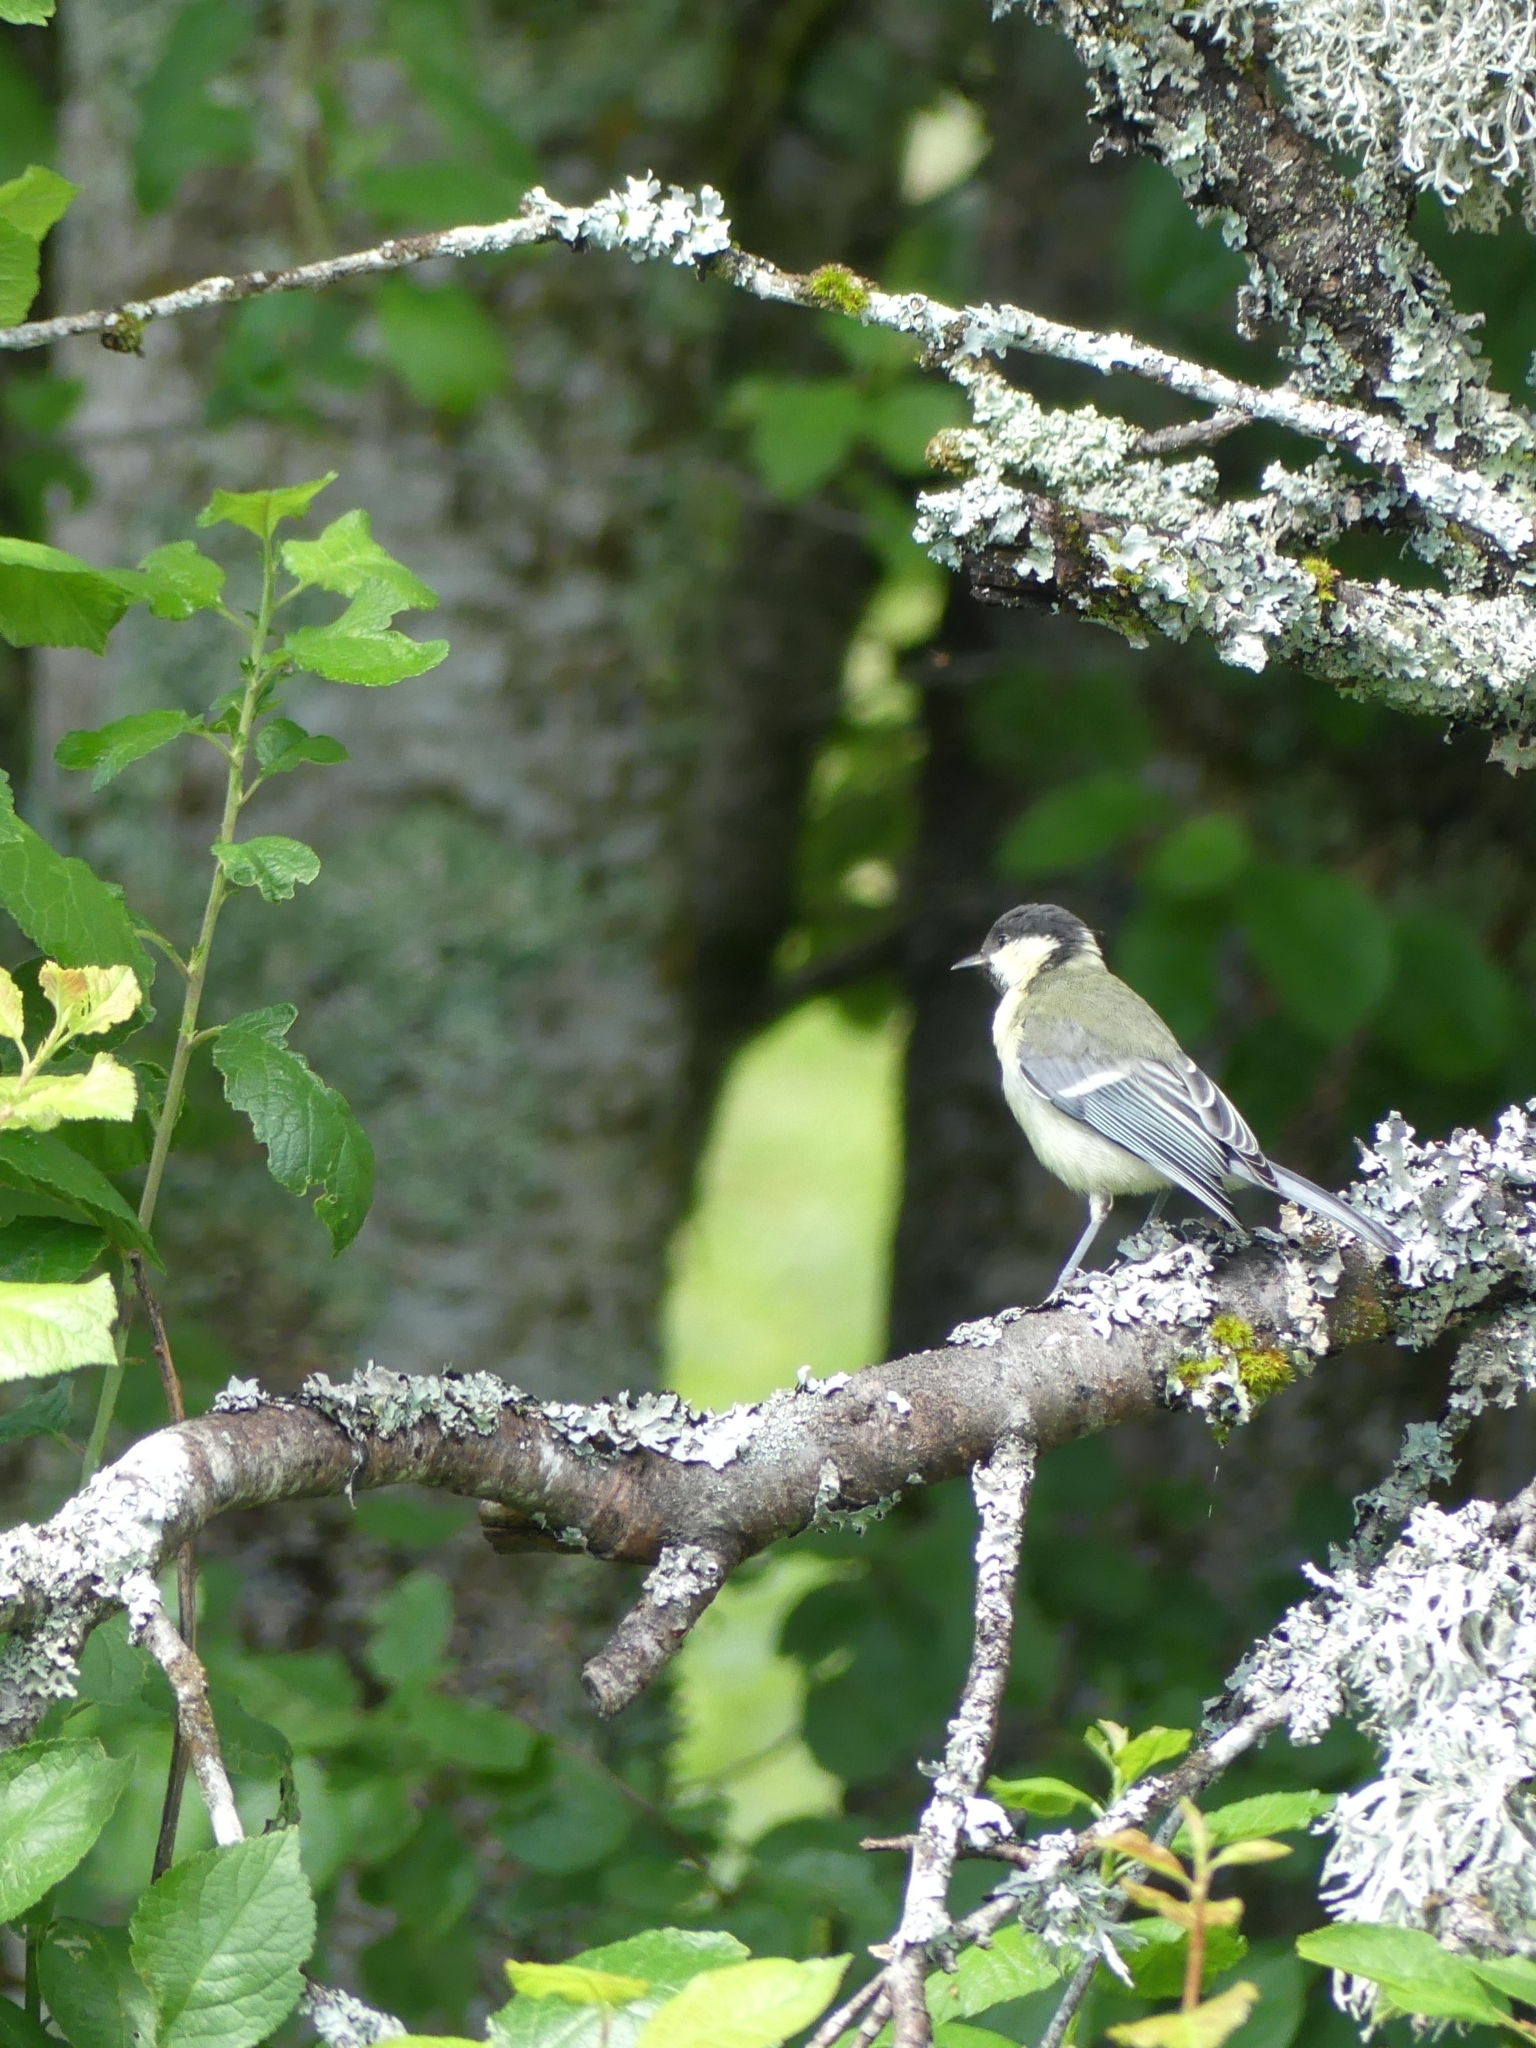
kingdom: Animalia
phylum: Chordata
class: Aves
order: Passeriformes
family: Paridae
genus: Parus
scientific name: Parus major
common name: Great tit
